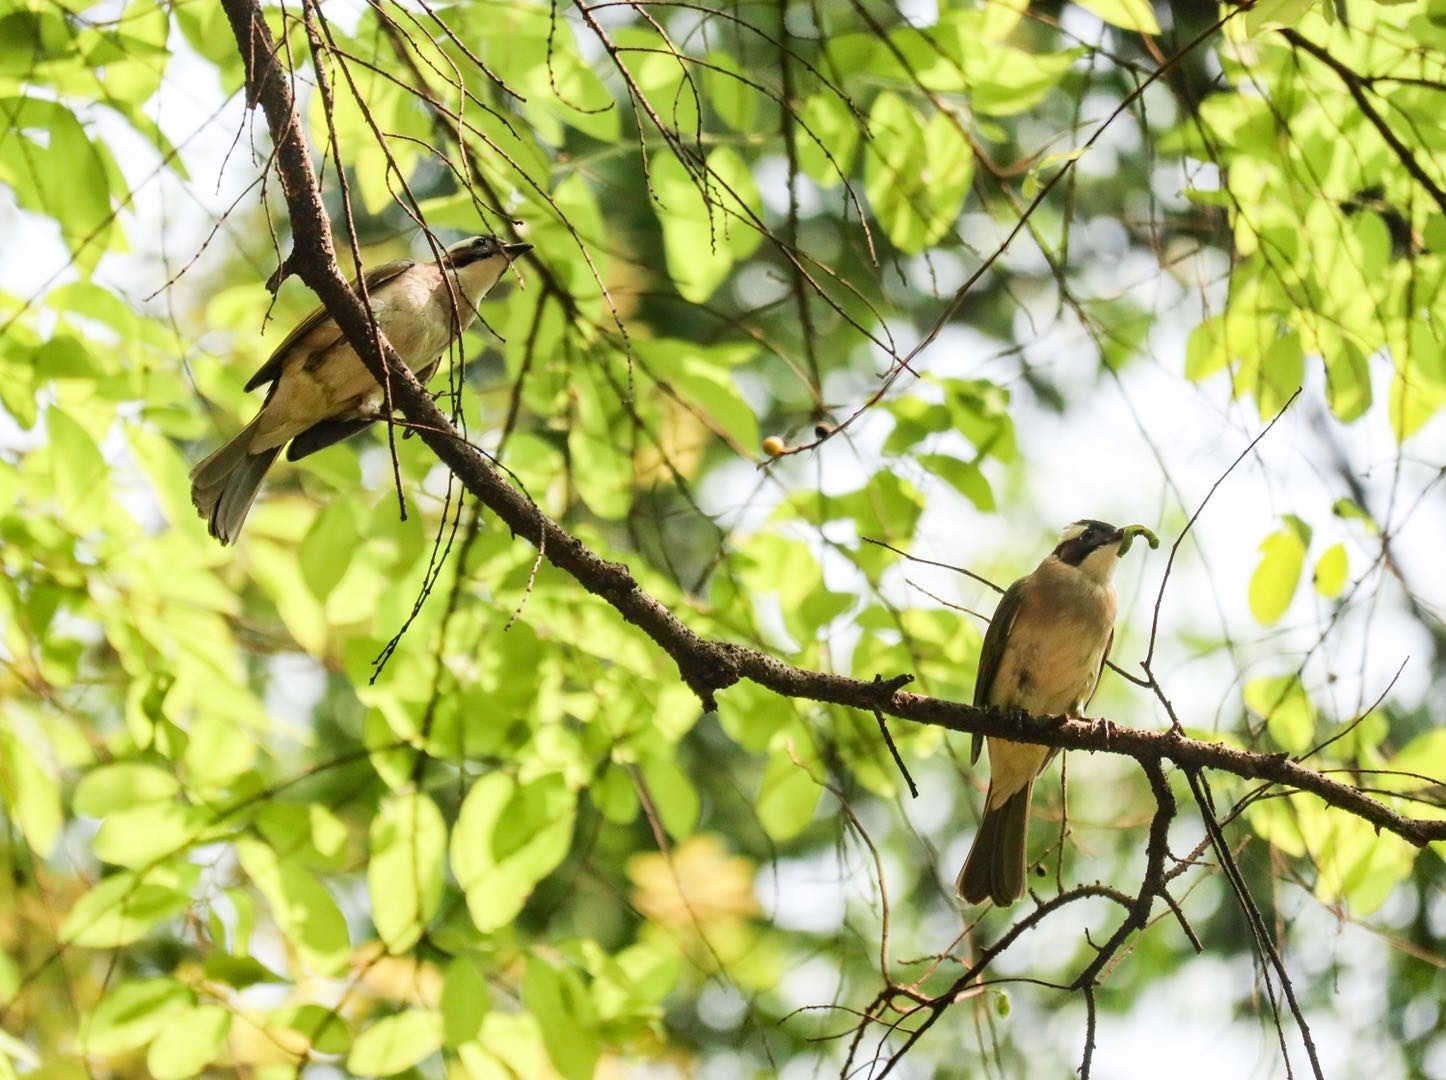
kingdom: Animalia
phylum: Chordata
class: Aves
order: Passeriformes
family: Pycnonotidae
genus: Pycnonotus
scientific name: Pycnonotus sinensis
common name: Light-vented bulbul
